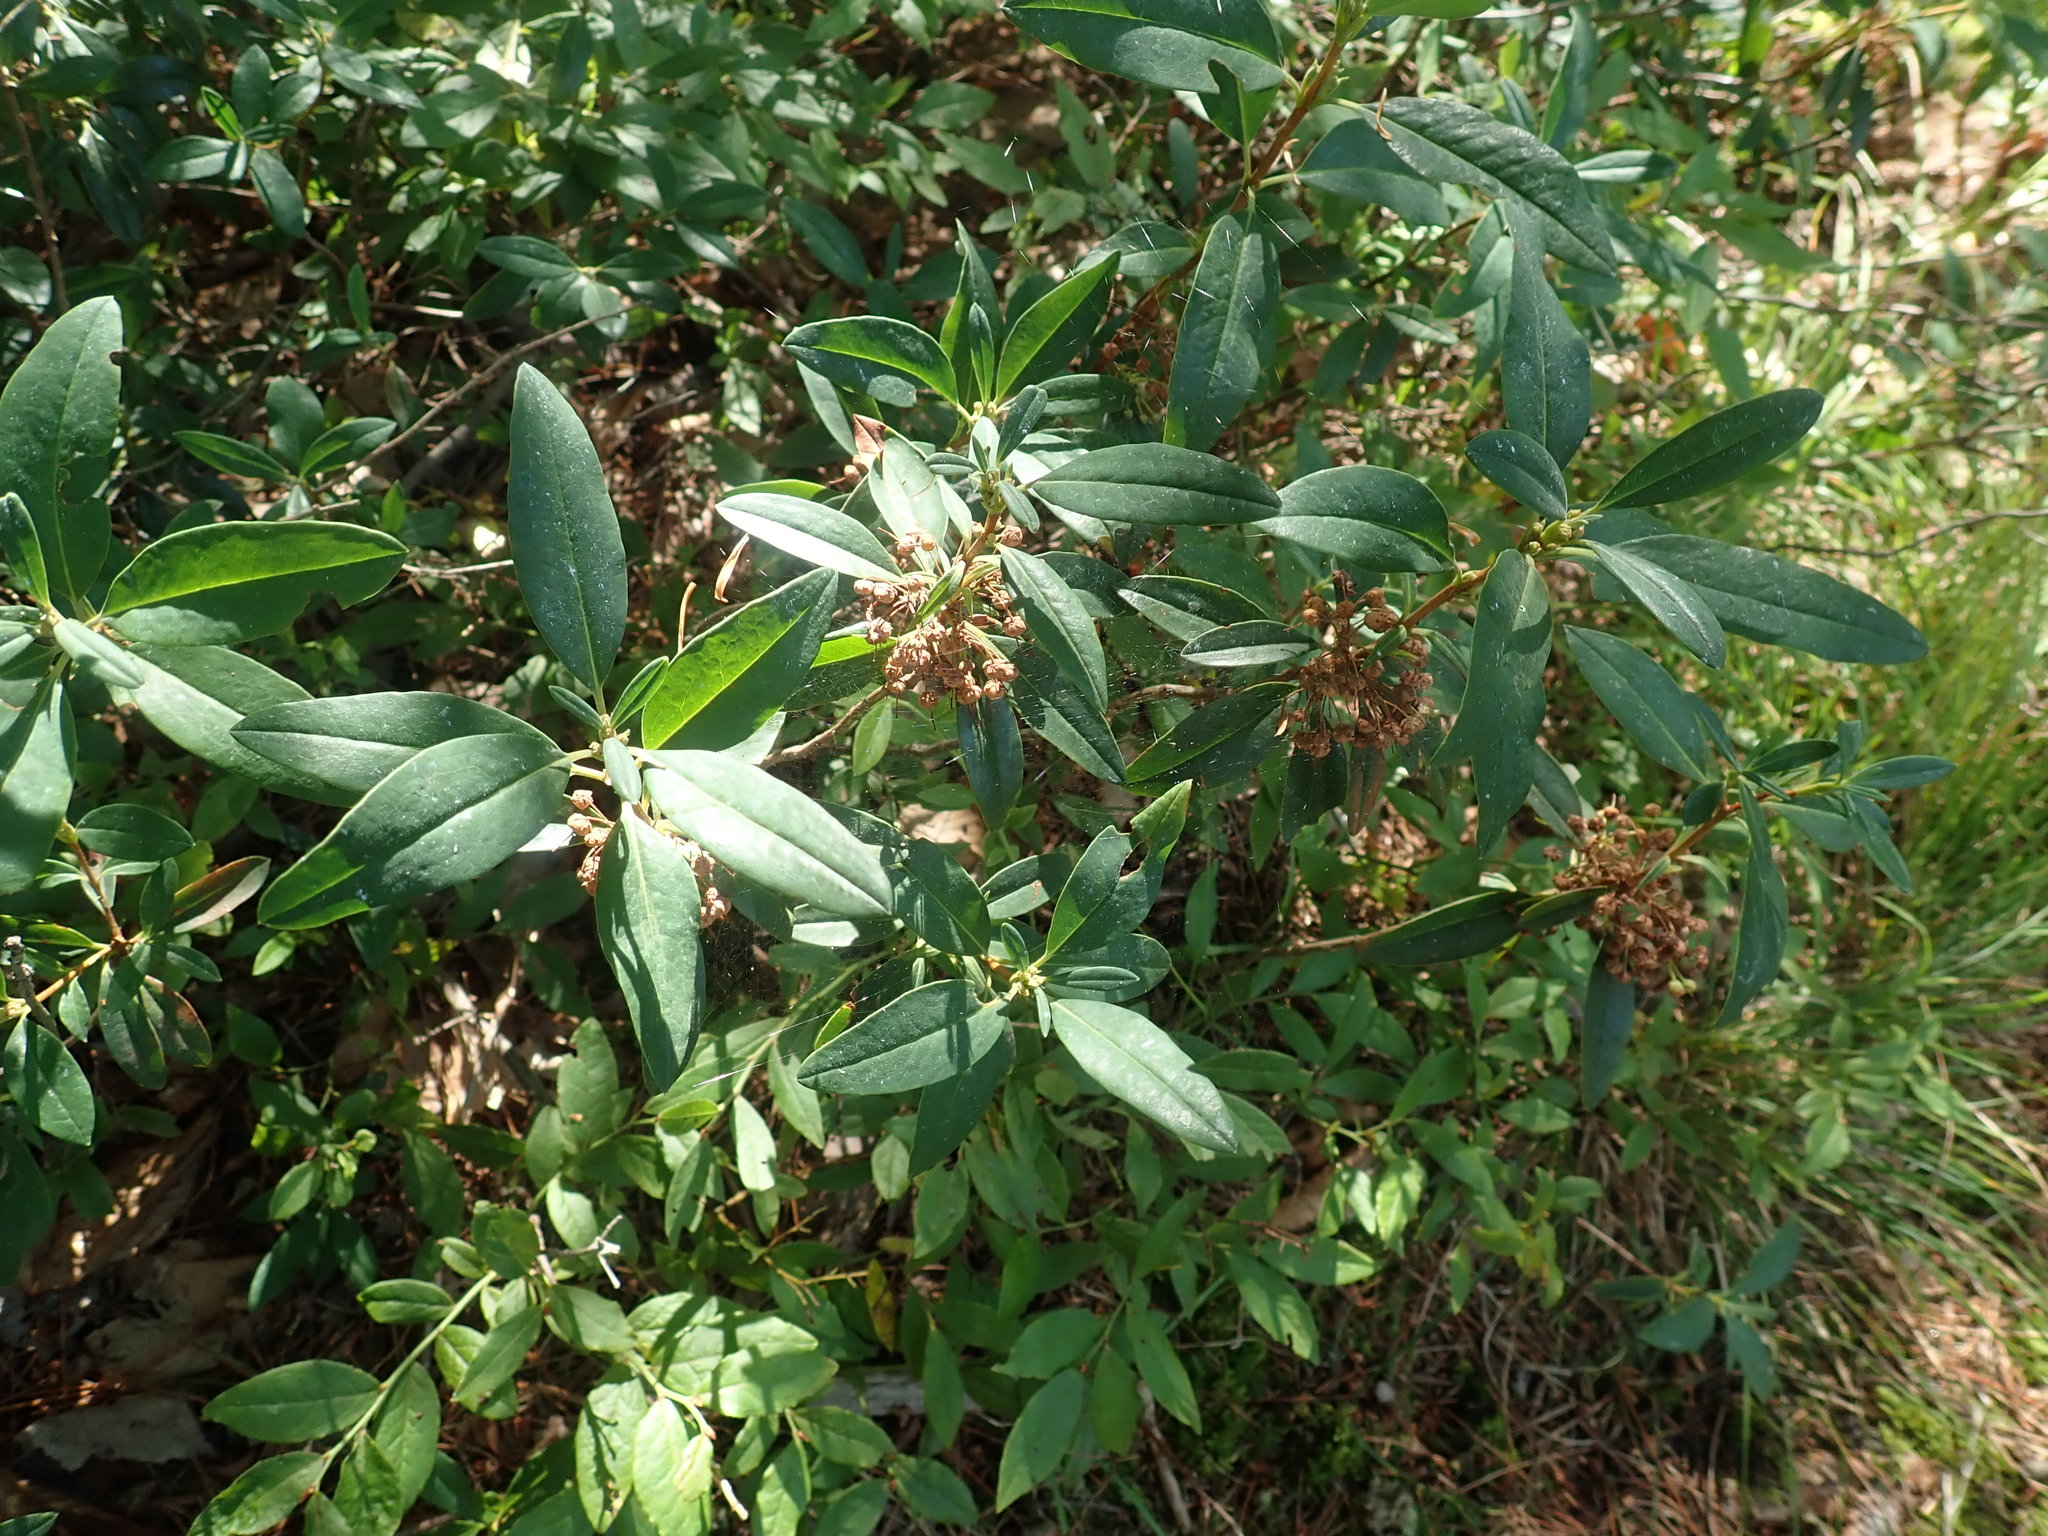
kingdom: Plantae
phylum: Tracheophyta
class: Magnoliopsida
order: Ericales
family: Ericaceae
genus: Kalmia
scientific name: Kalmia angustifolia
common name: Sheep-laurel
